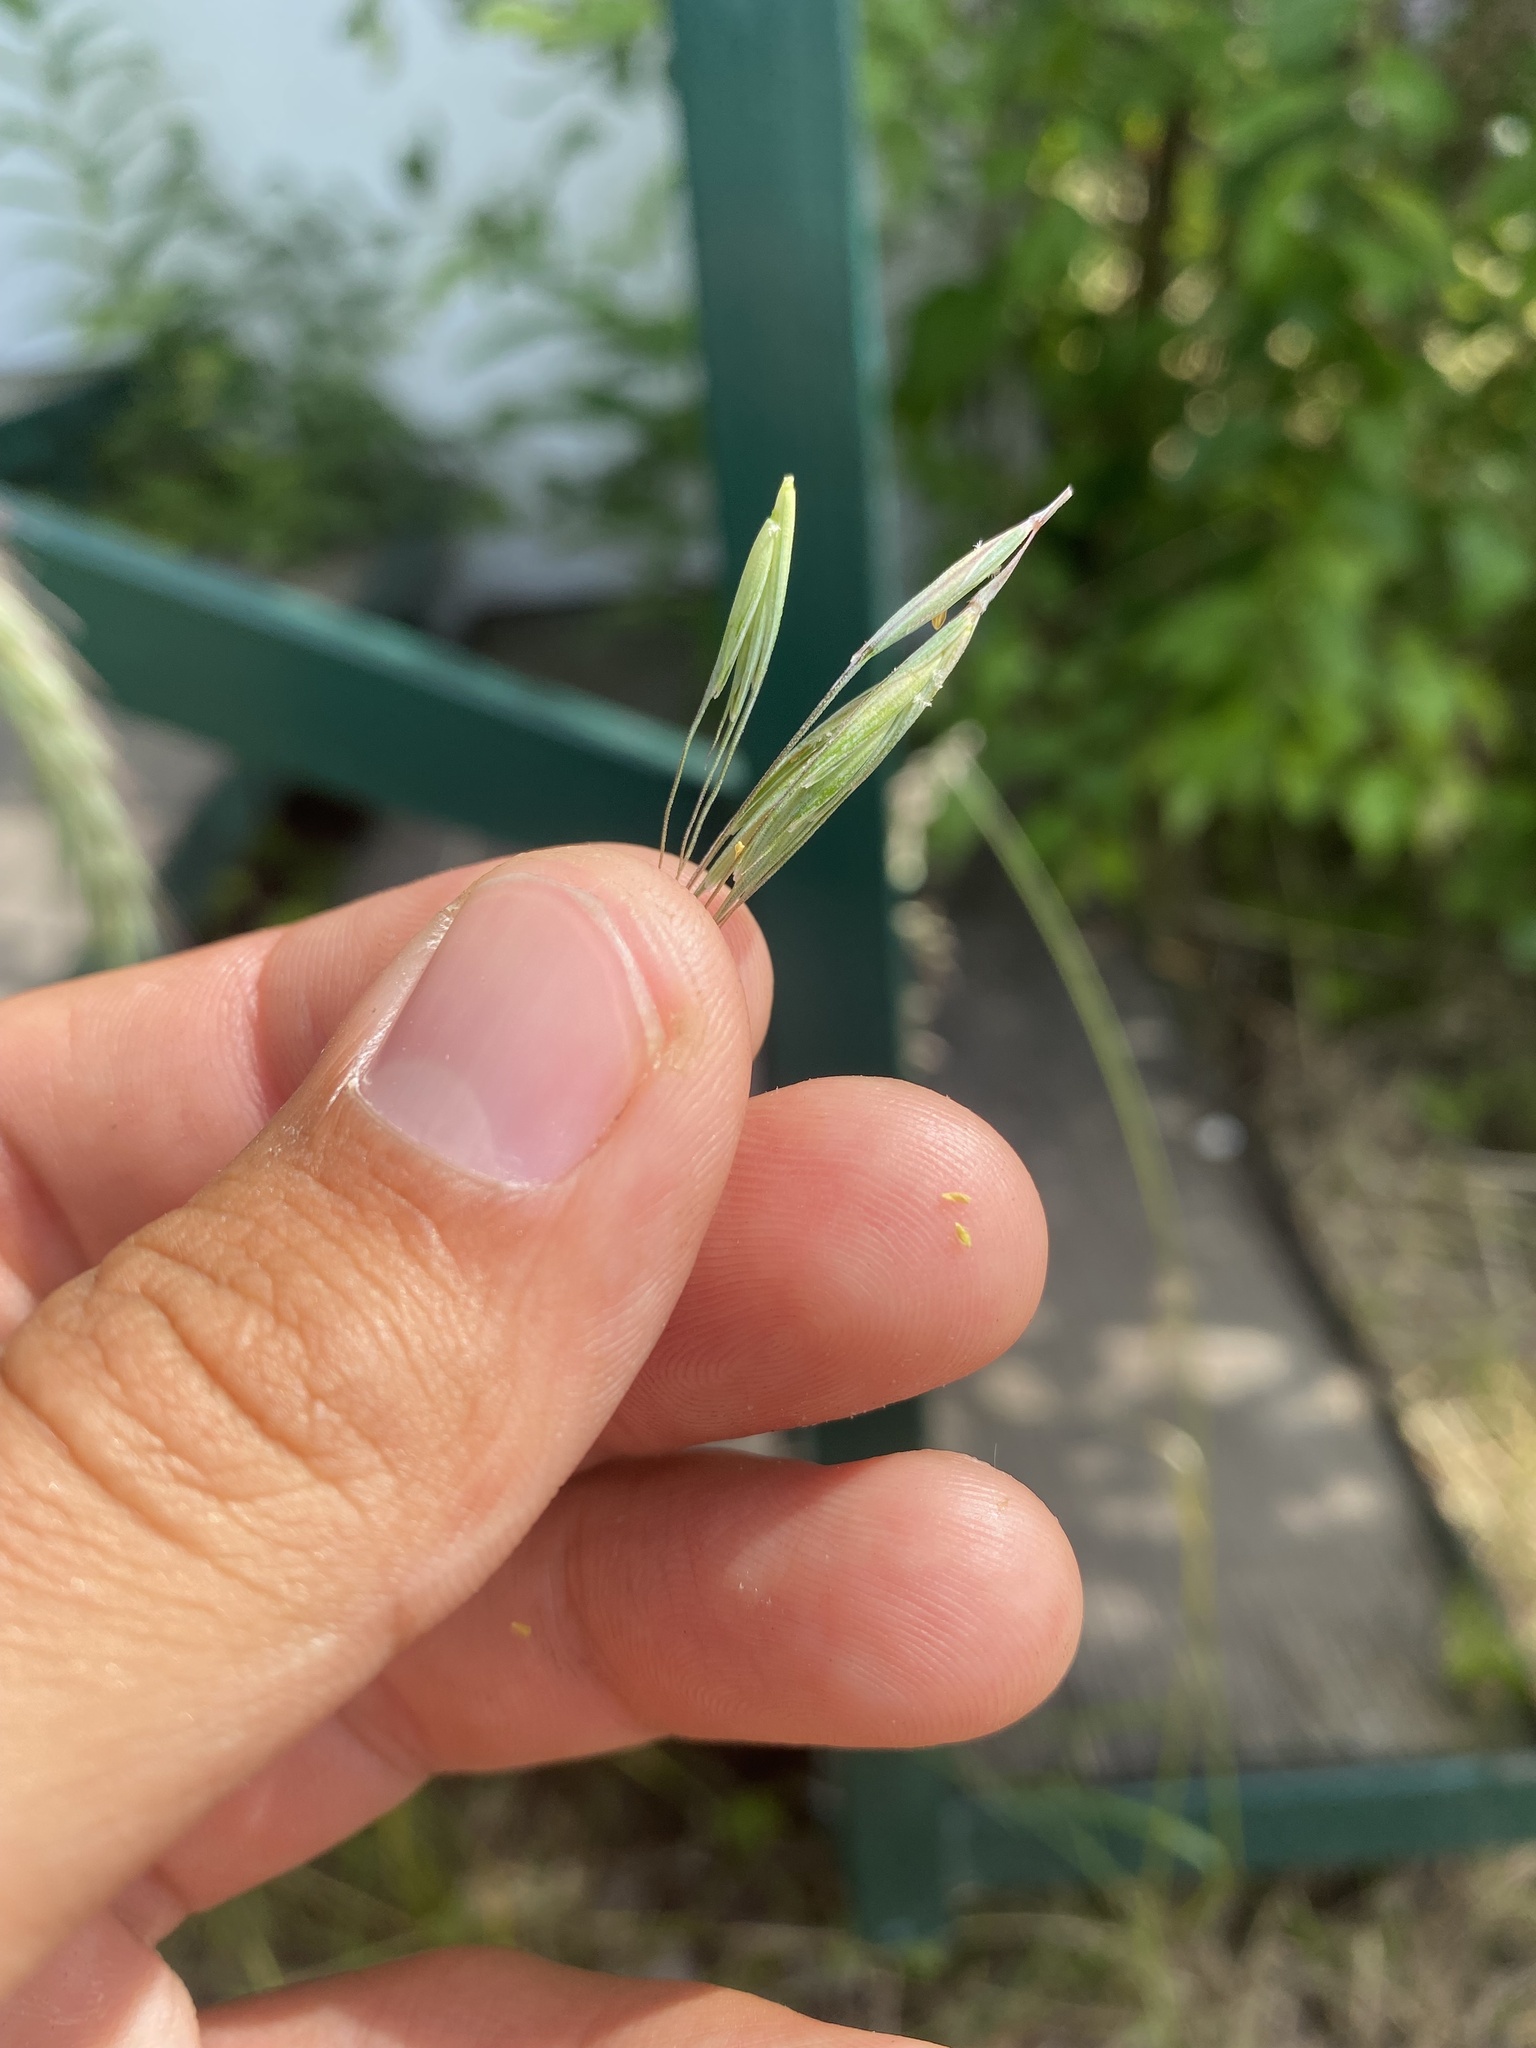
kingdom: Plantae
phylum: Tracheophyta
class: Liliopsida
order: Poales
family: Poaceae
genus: Elymus
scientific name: Elymus sibiricus
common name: Siberian wildrye
